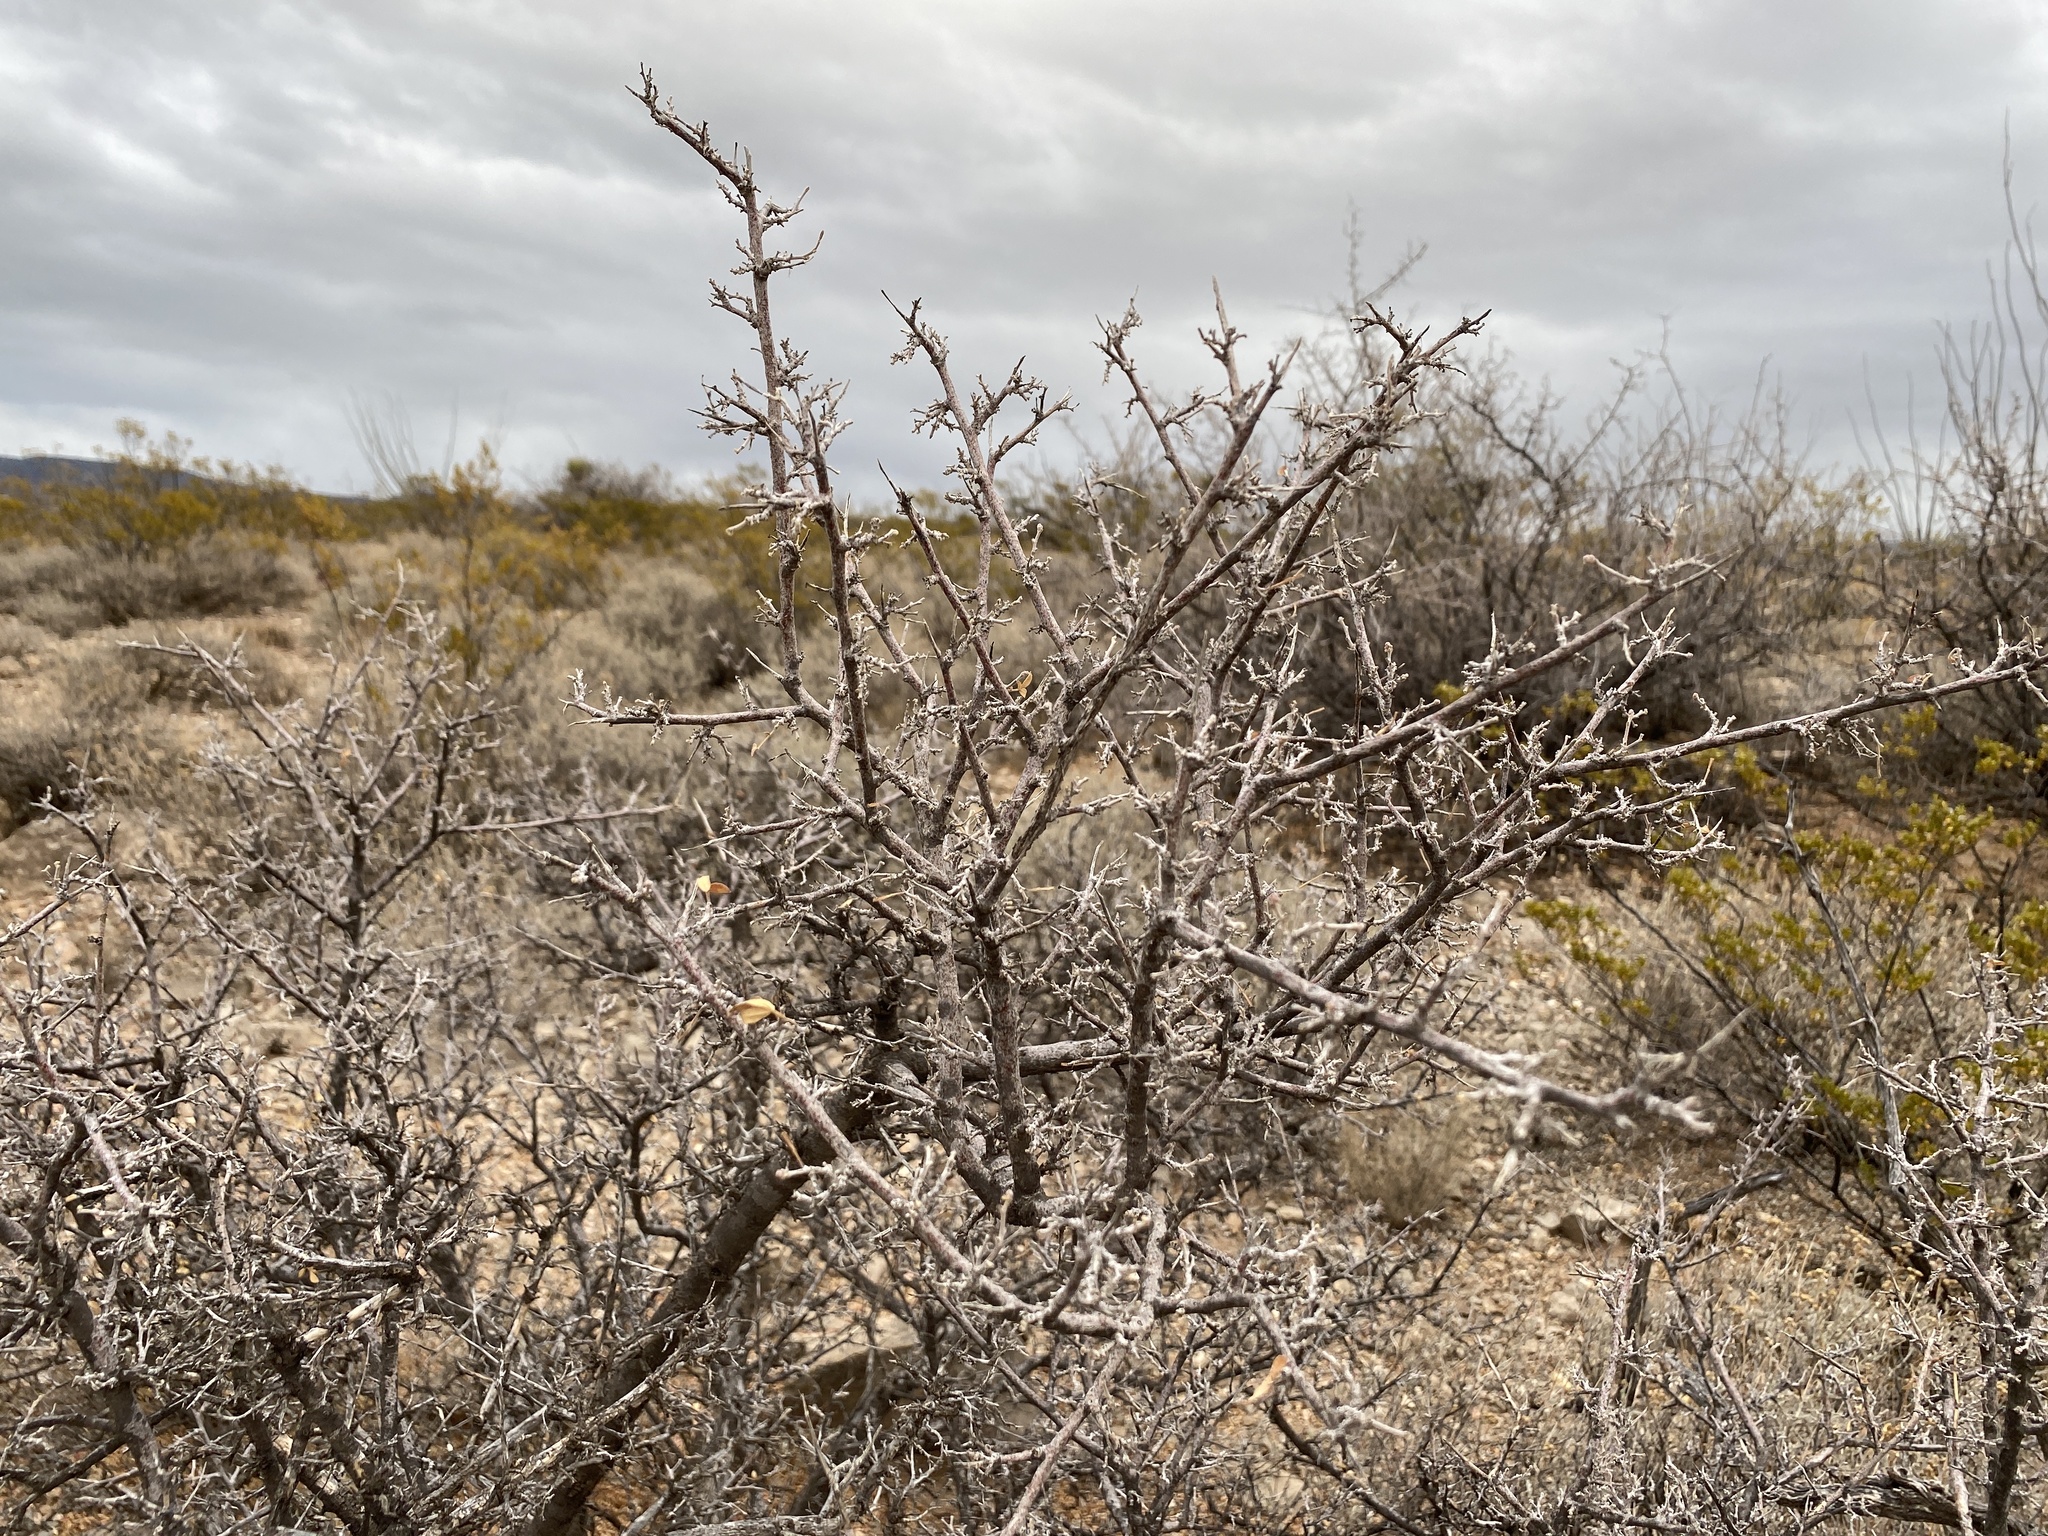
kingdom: Plantae
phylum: Tracheophyta
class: Magnoliopsida
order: Sapindales
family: Anacardiaceae
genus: Rhus
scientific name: Rhus microphylla
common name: Desert sumac
